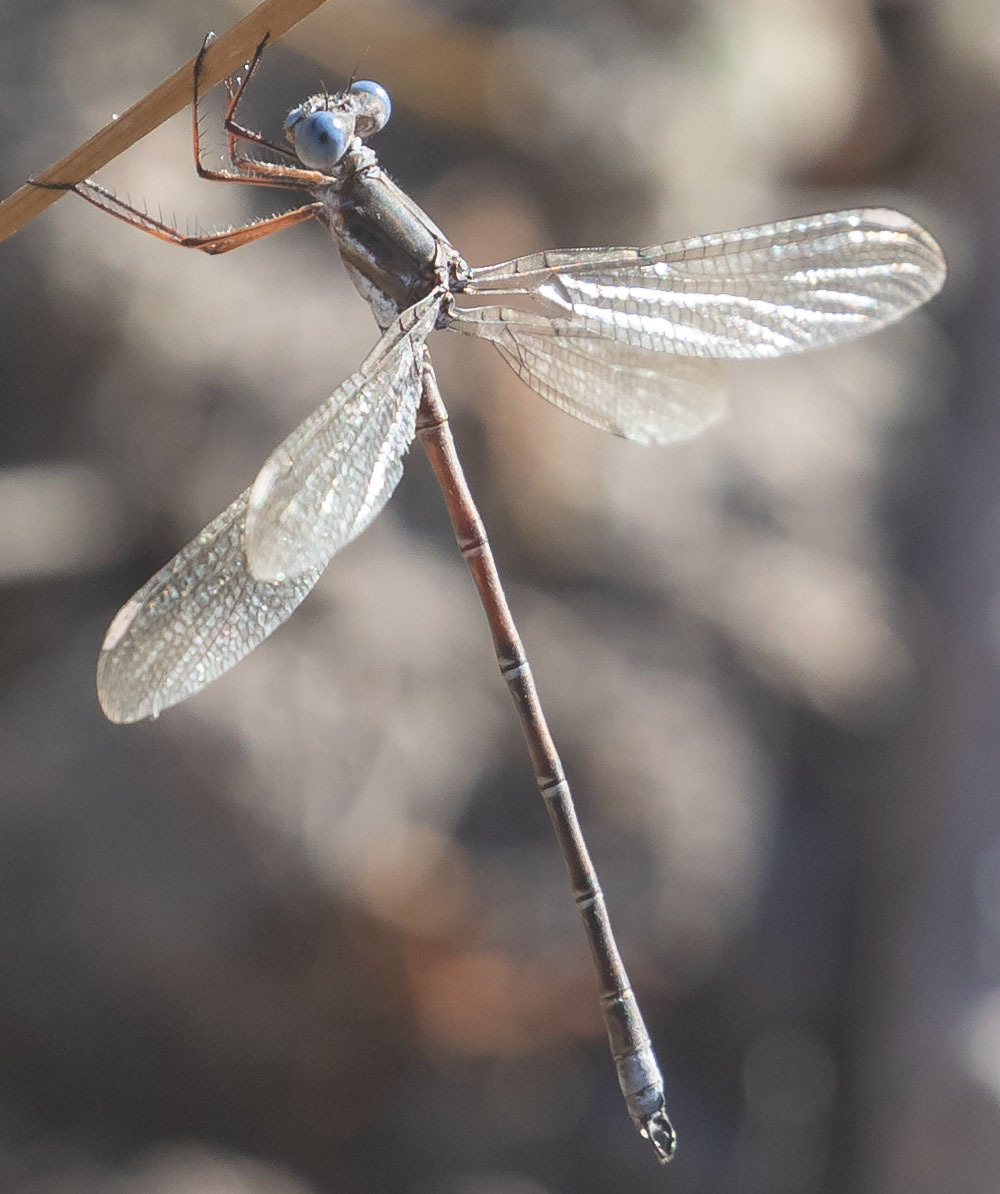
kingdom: Animalia
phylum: Arthropoda
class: Insecta
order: Odonata
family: Lestidae
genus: Archilestes
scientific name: Archilestes californicus
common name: California spreadwing
